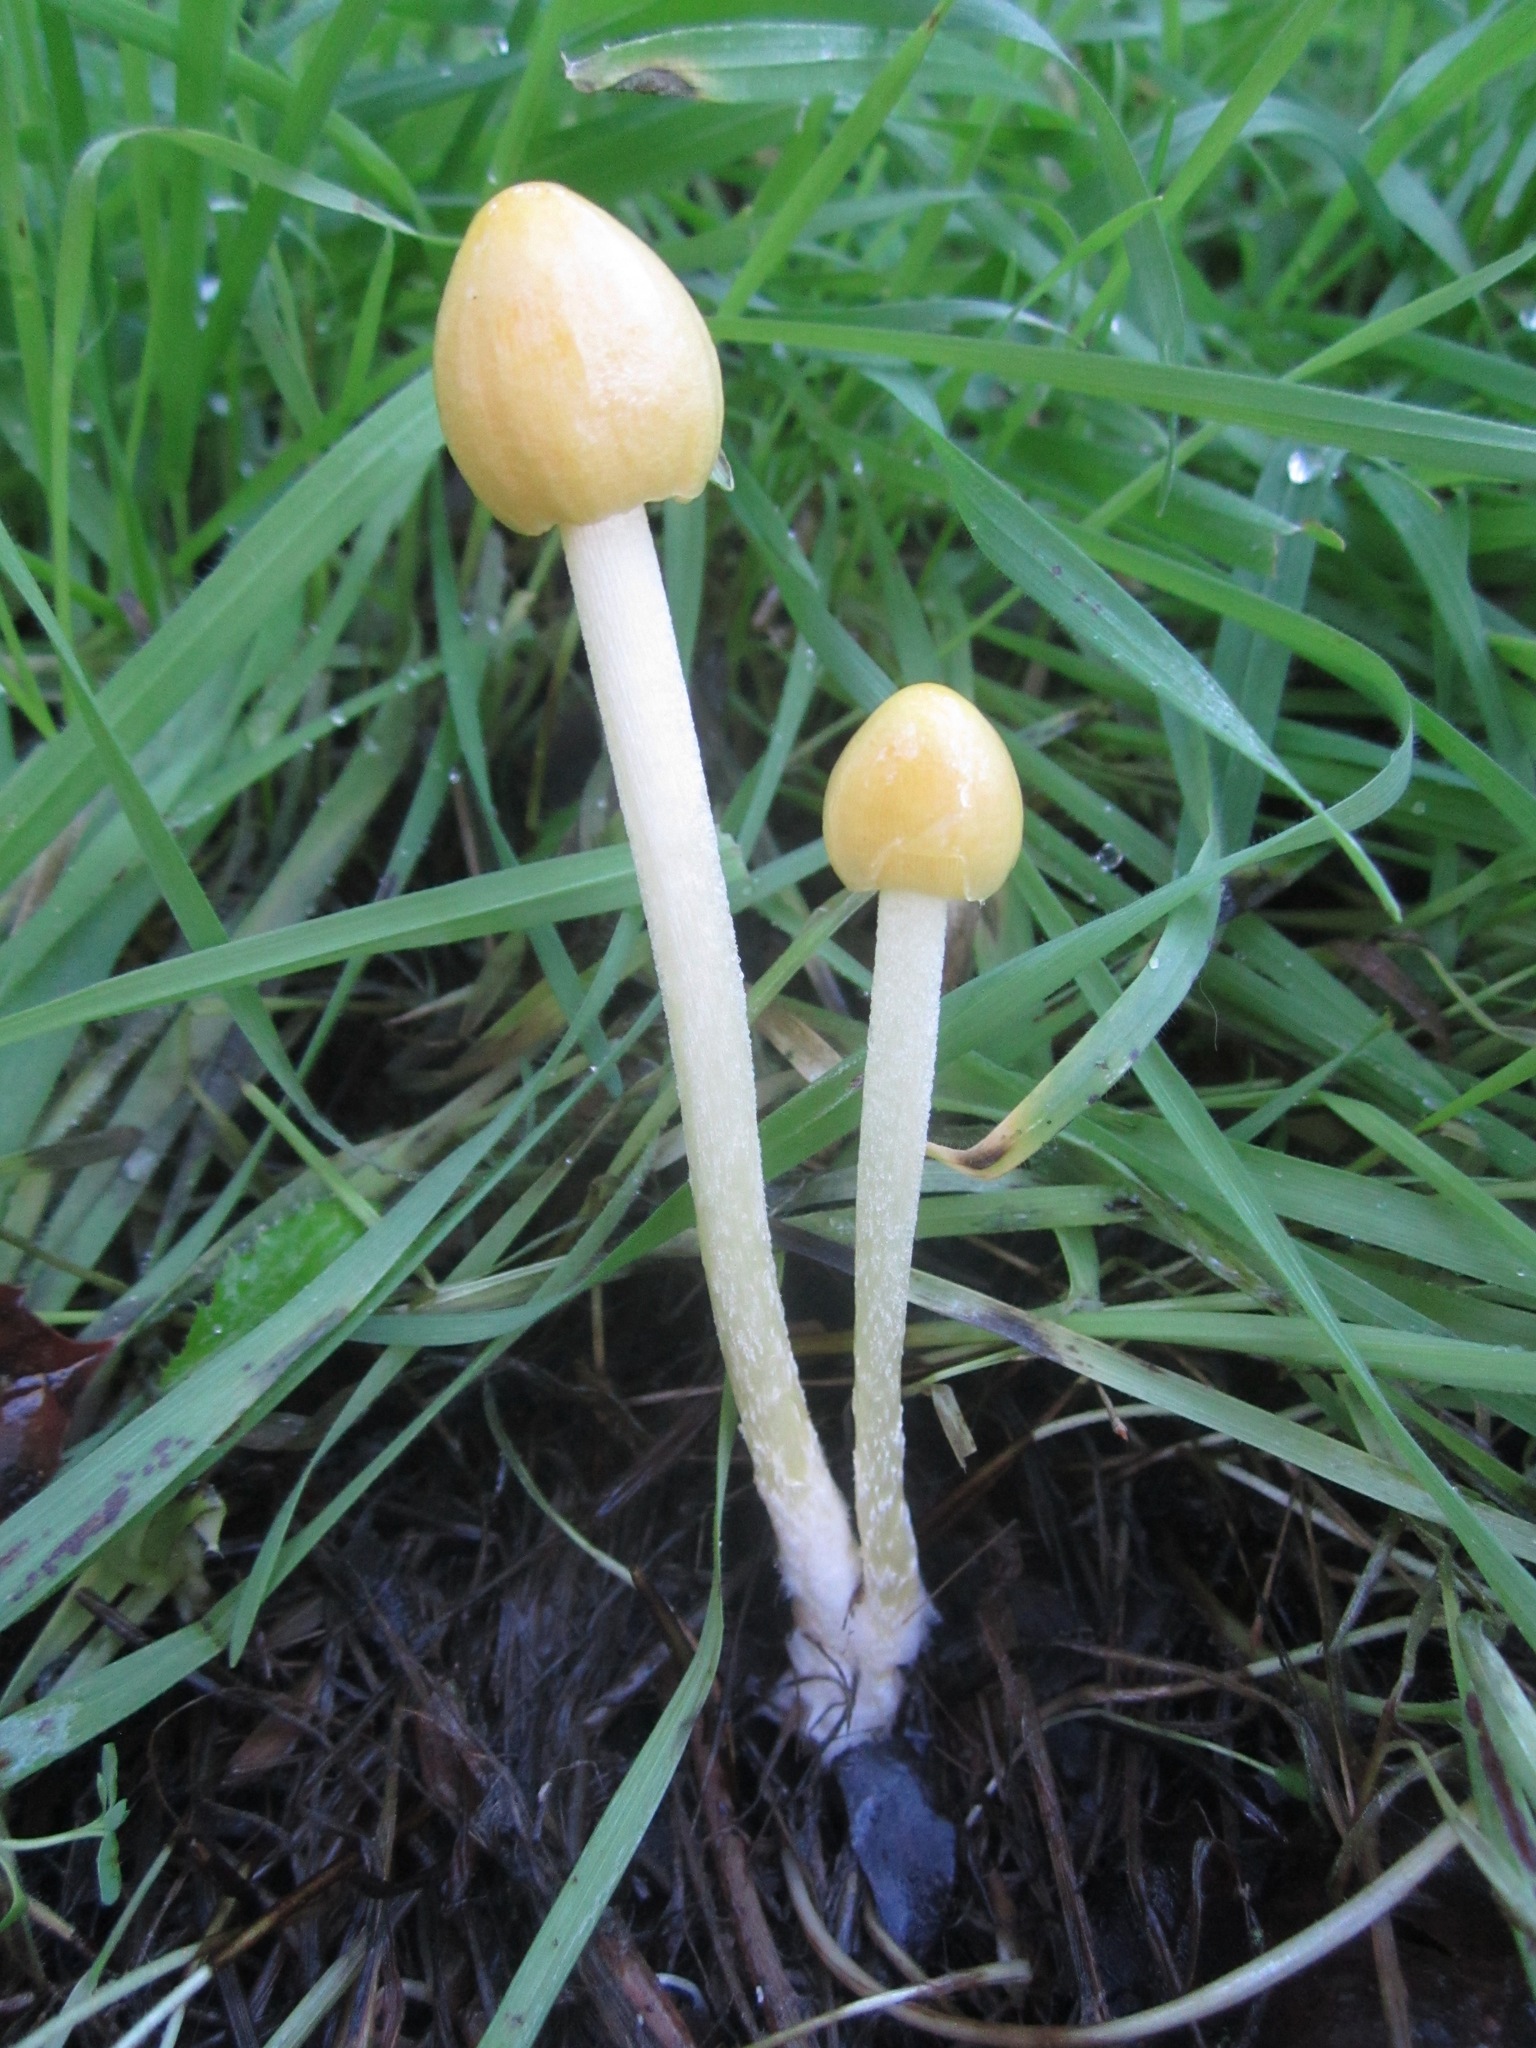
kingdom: Fungi
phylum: Basidiomycota
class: Agaricomycetes
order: Agaricales
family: Bolbitiaceae
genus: Bolbitius
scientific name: Bolbitius titubans
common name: Yellow fieldcap
